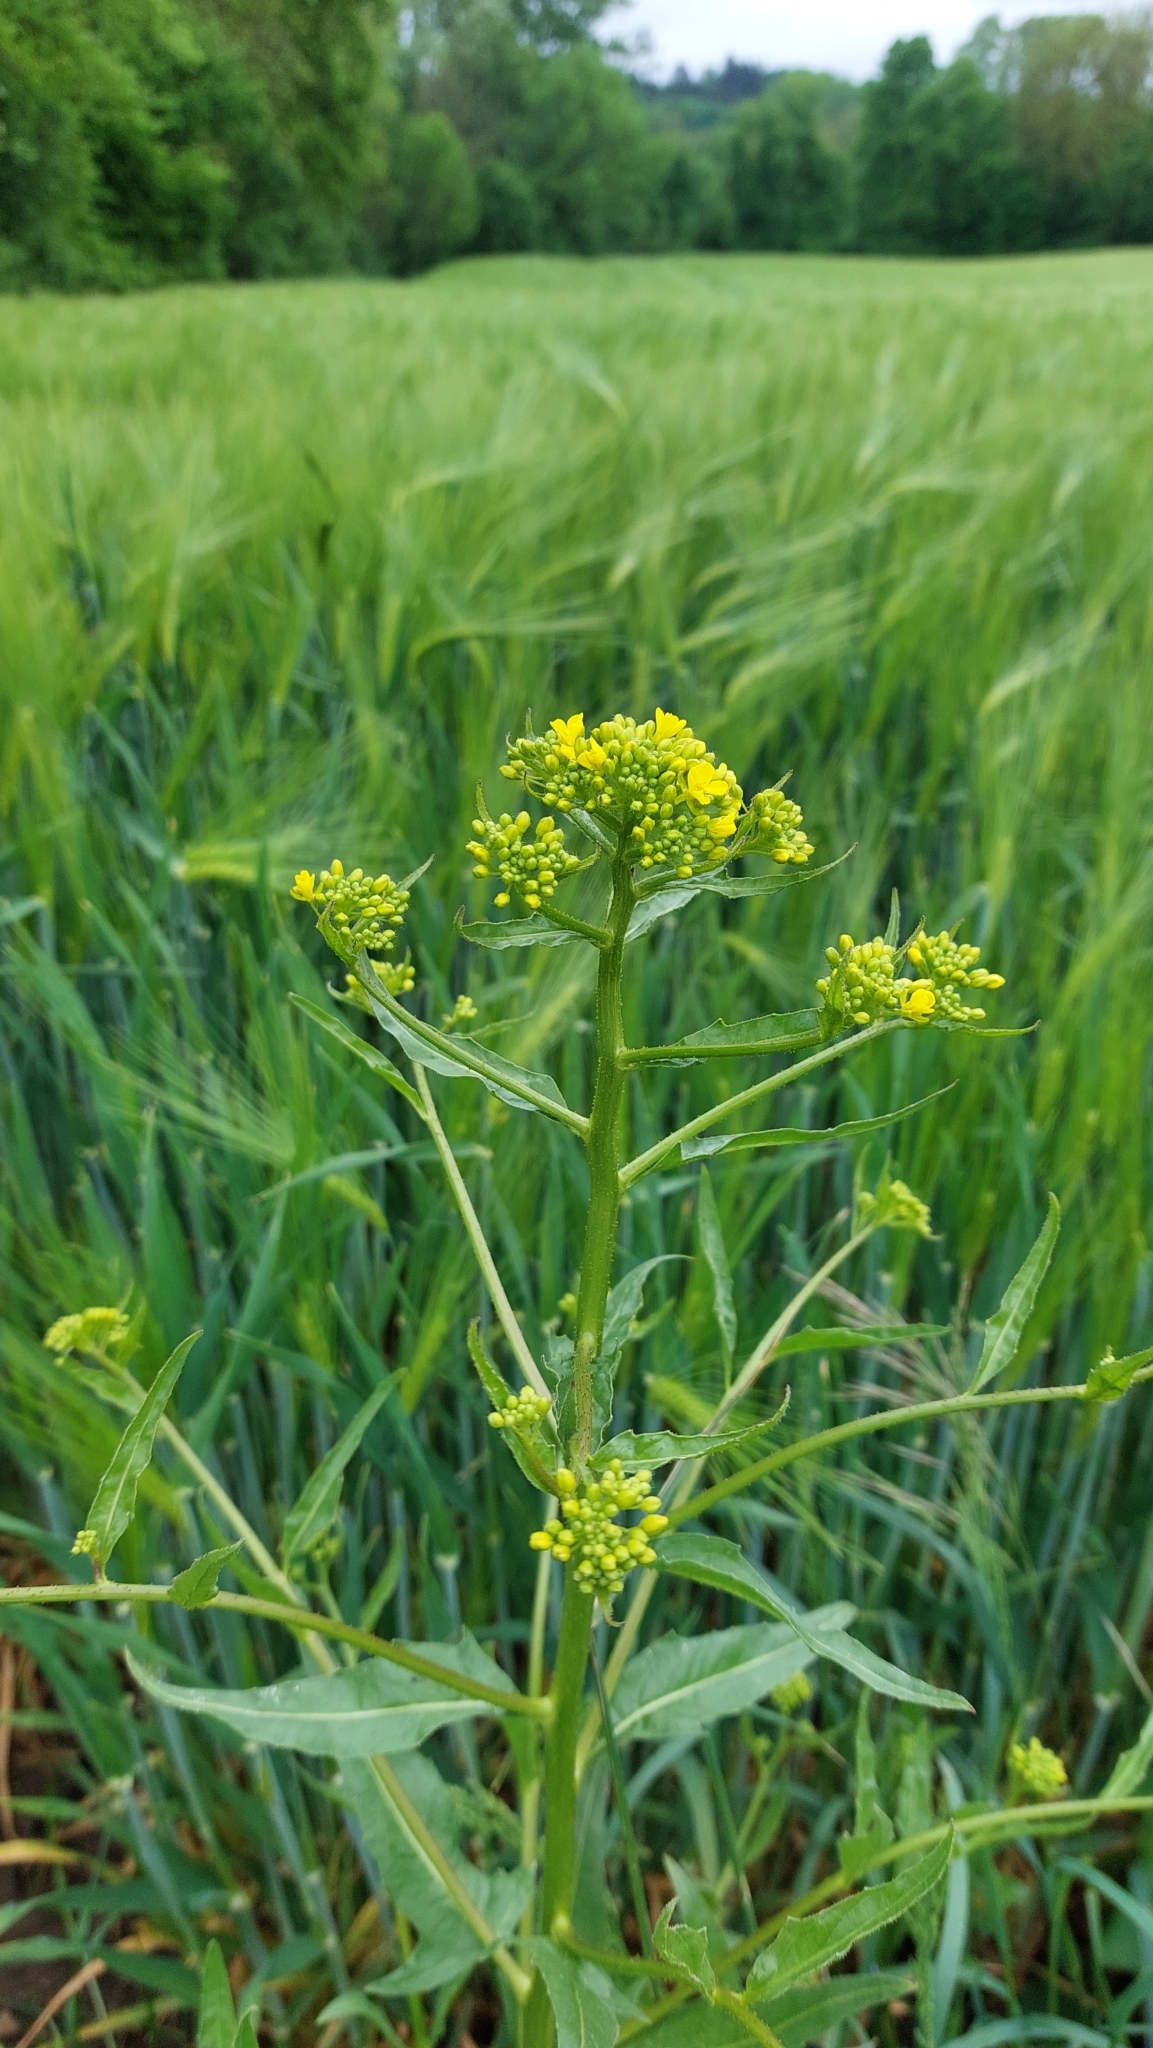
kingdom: Plantae
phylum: Tracheophyta
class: Magnoliopsida
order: Brassicales
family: Brassicaceae
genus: Bunias
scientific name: Bunias orientalis
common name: Warty-cabbage
